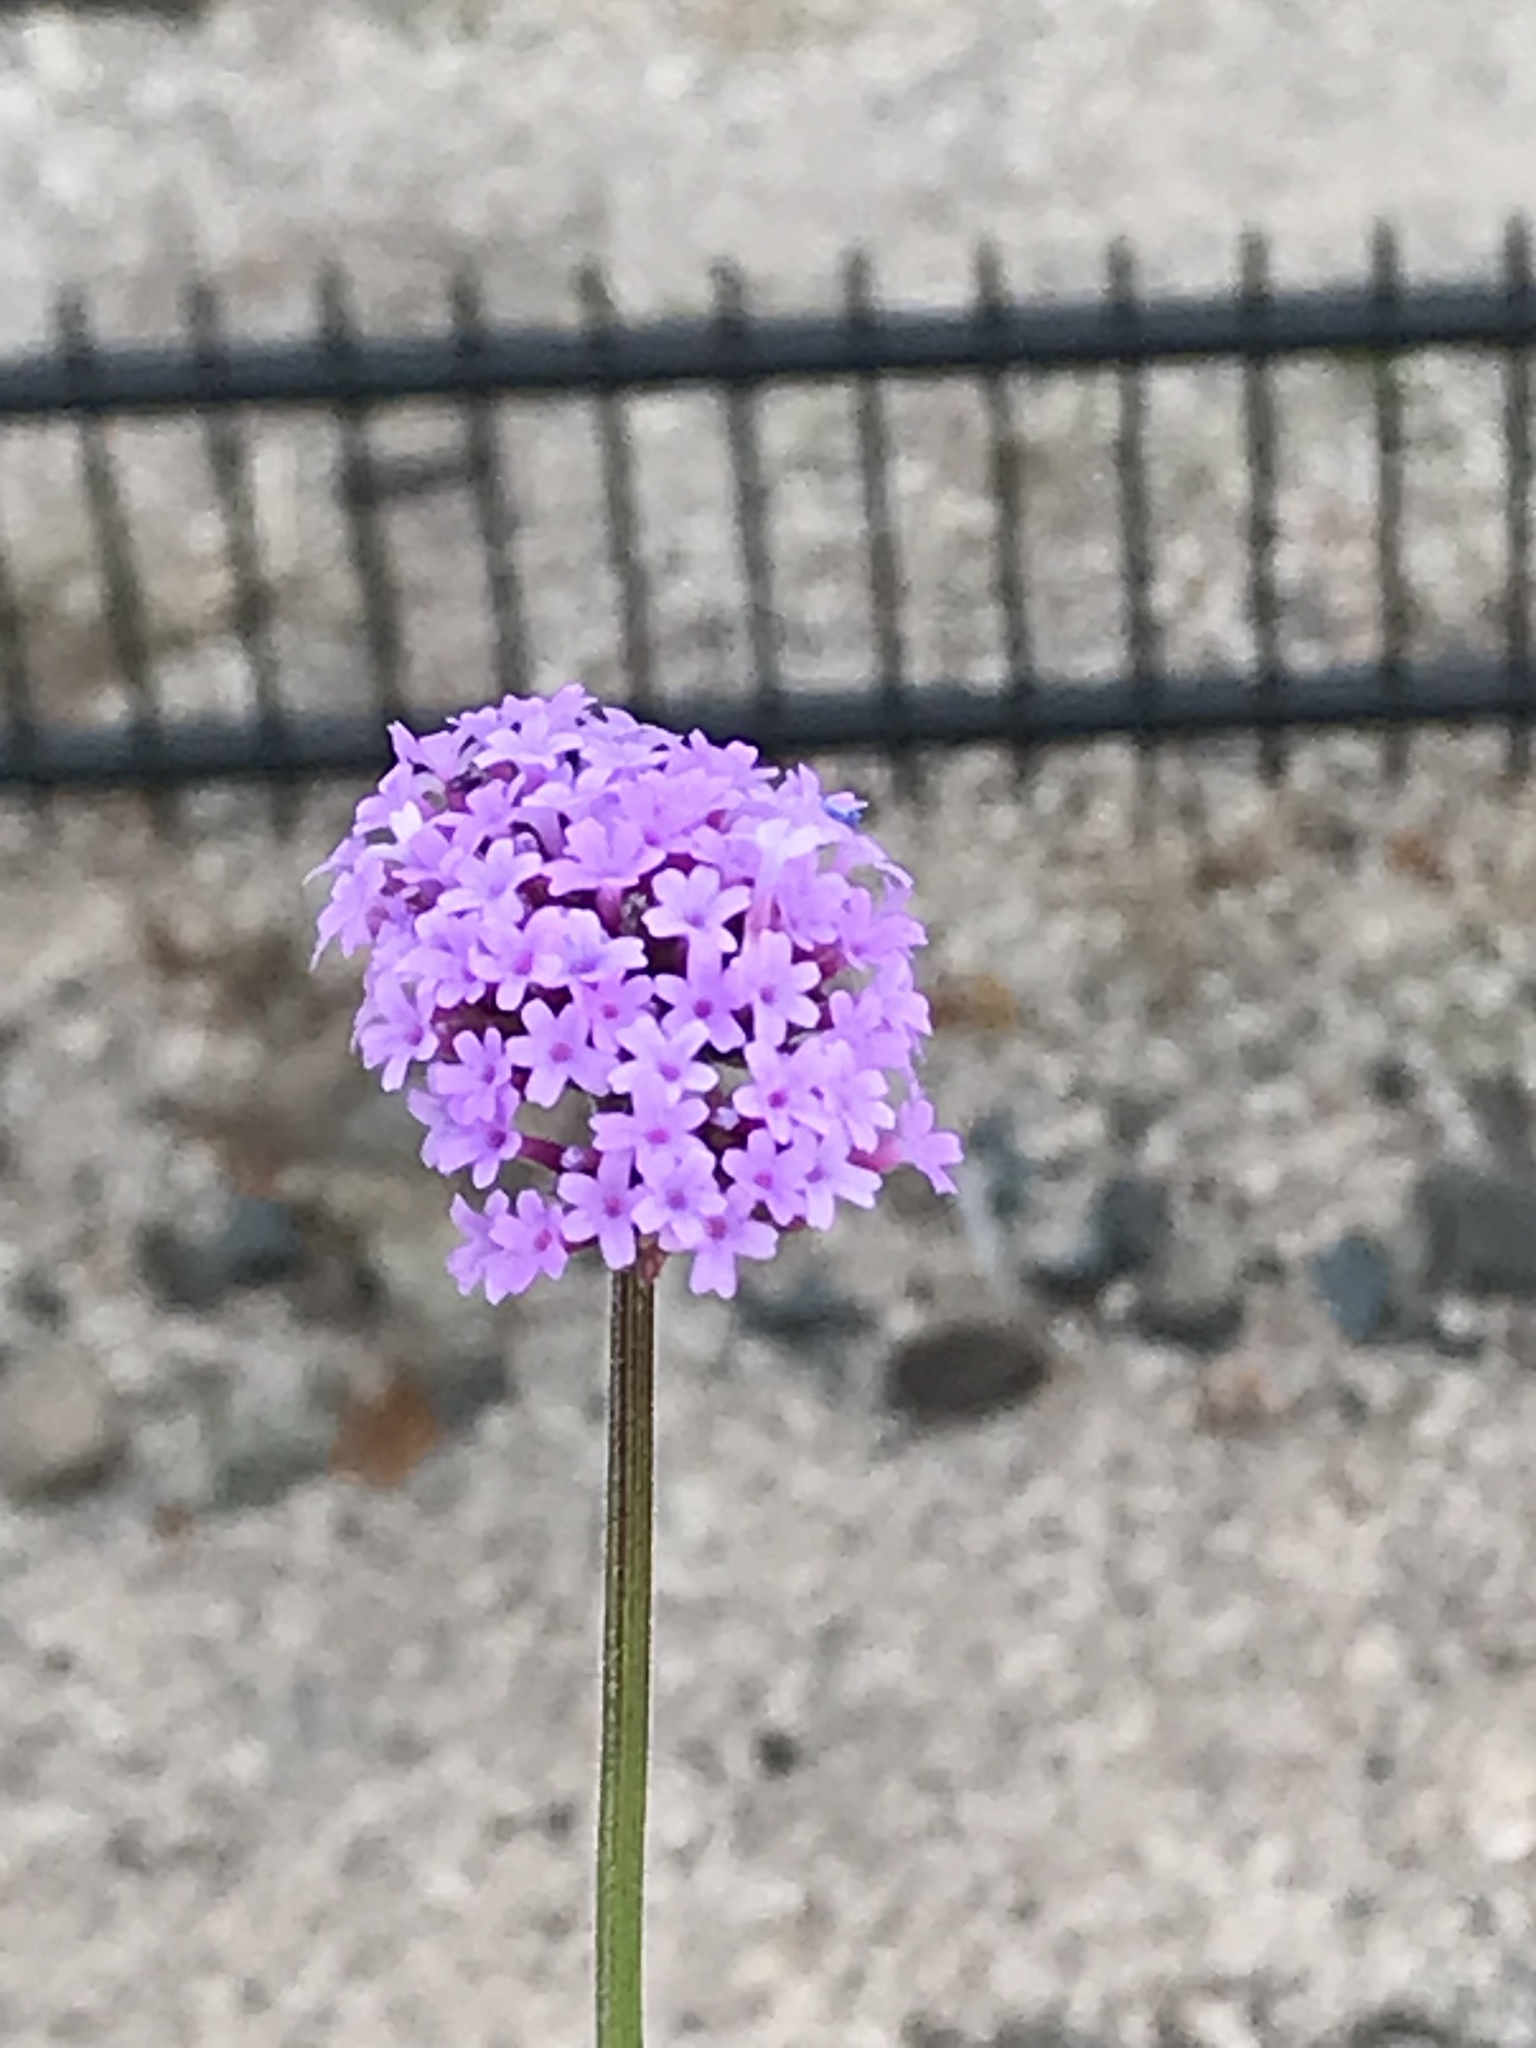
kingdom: Plantae
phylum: Tracheophyta
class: Magnoliopsida
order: Lamiales
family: Verbenaceae
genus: Verbena
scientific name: Verbena bonariensis
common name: Purpletop vervain
